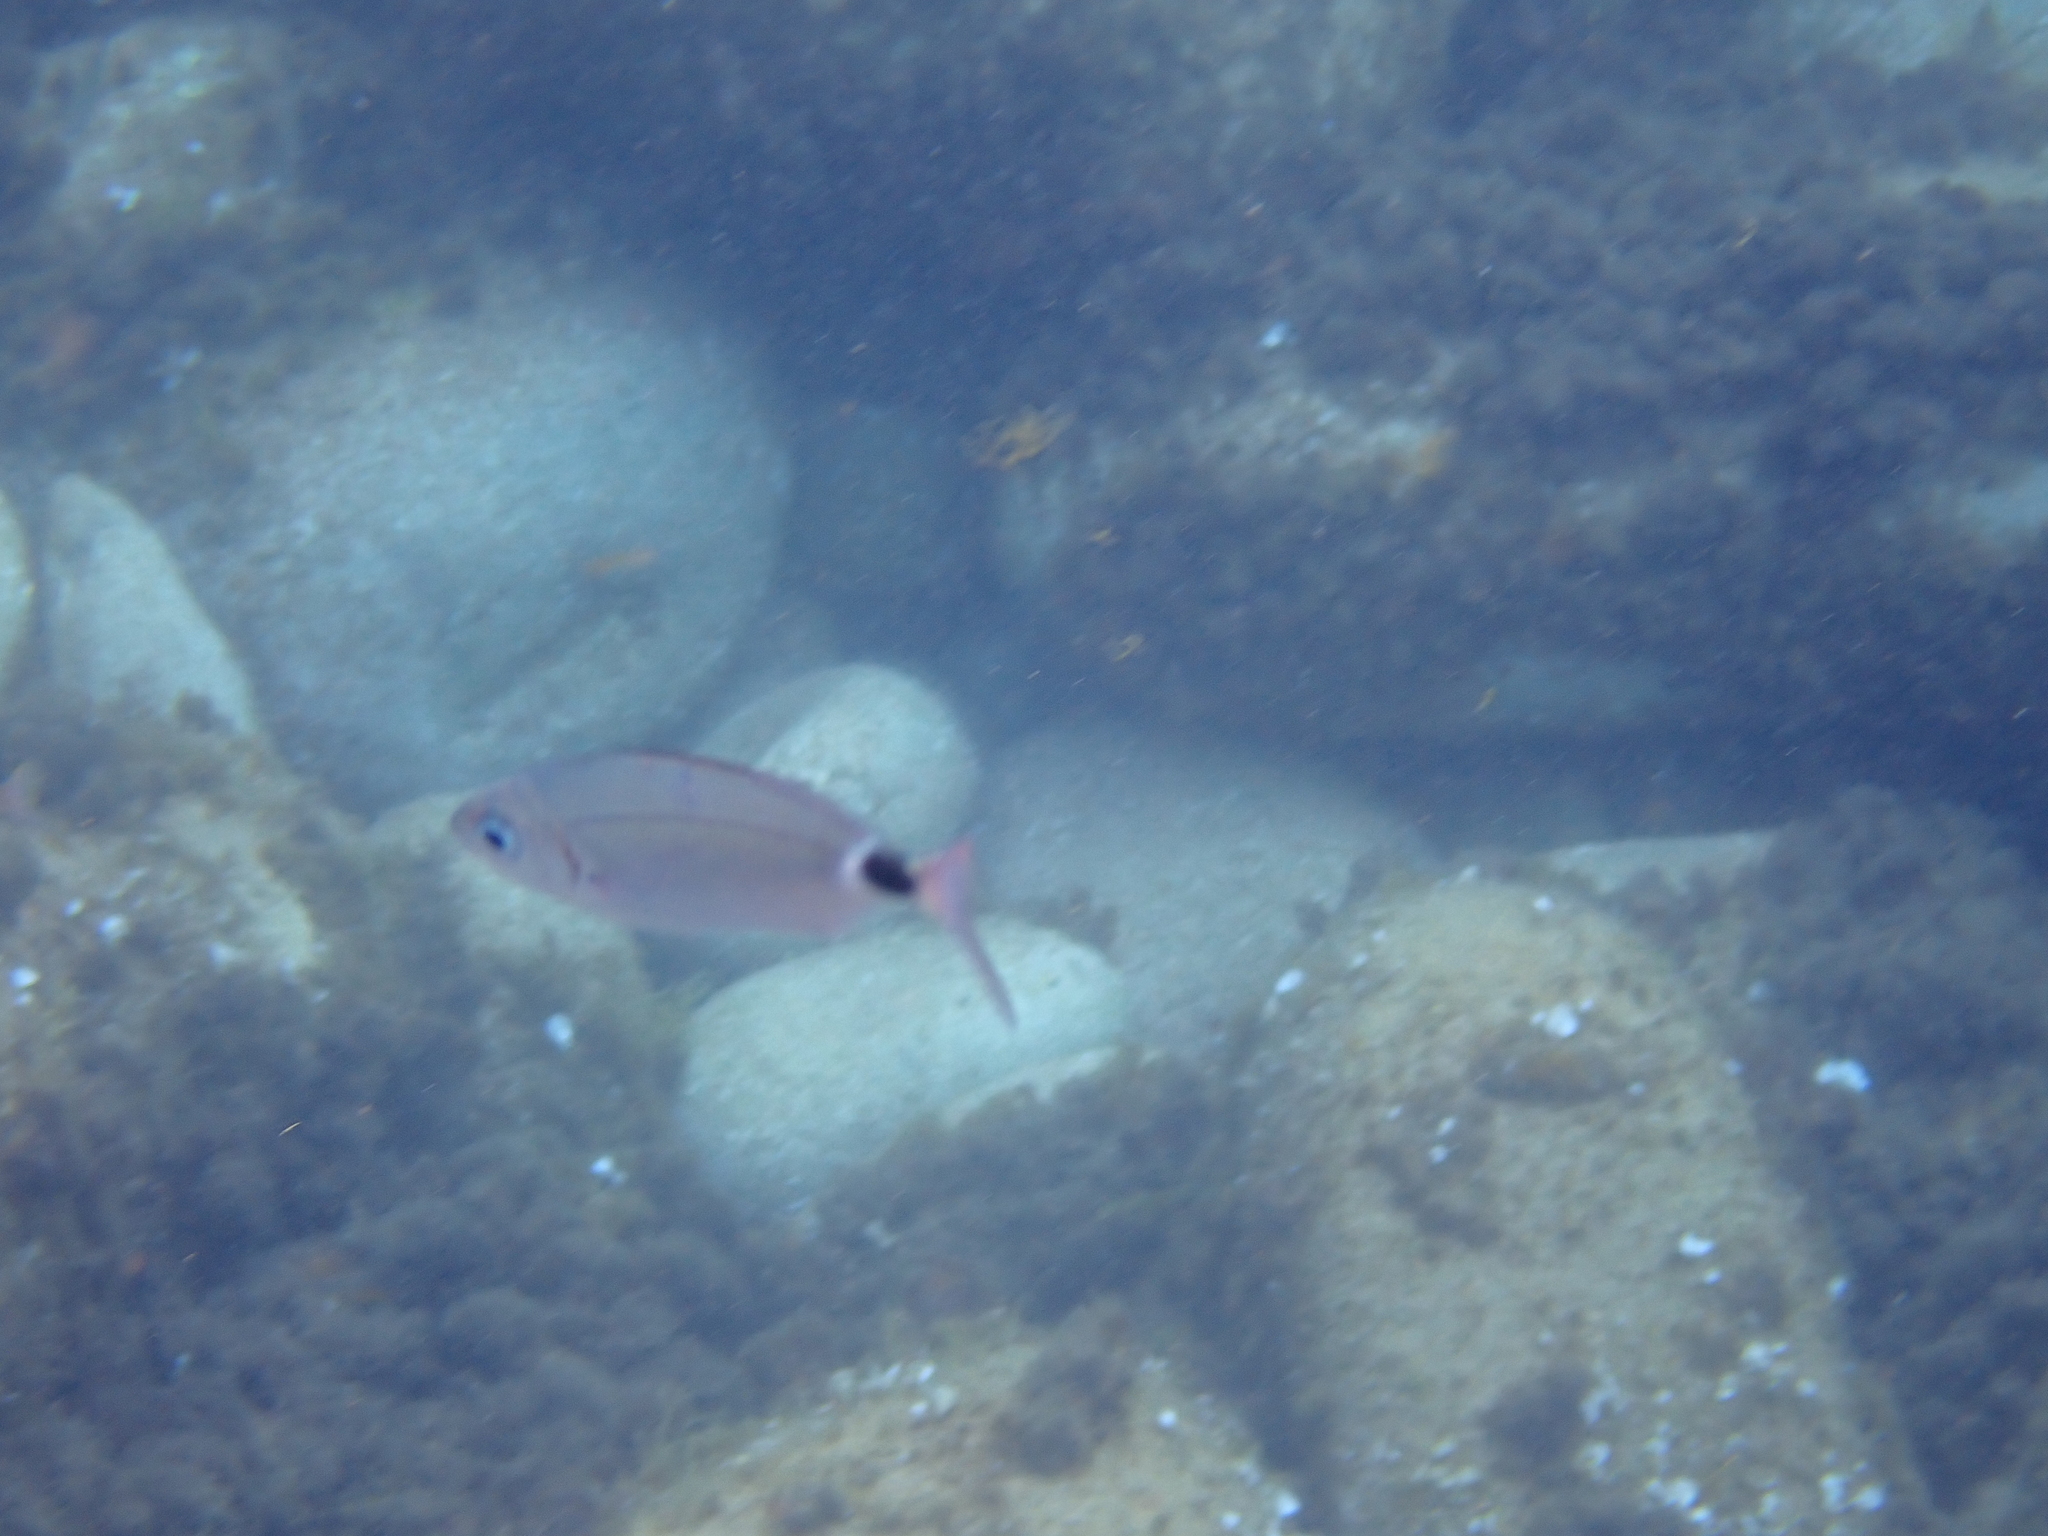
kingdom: Animalia
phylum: Chordata
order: Perciformes
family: Sparidae
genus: Oblada
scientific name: Oblada melanura
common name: Saddled seabream
